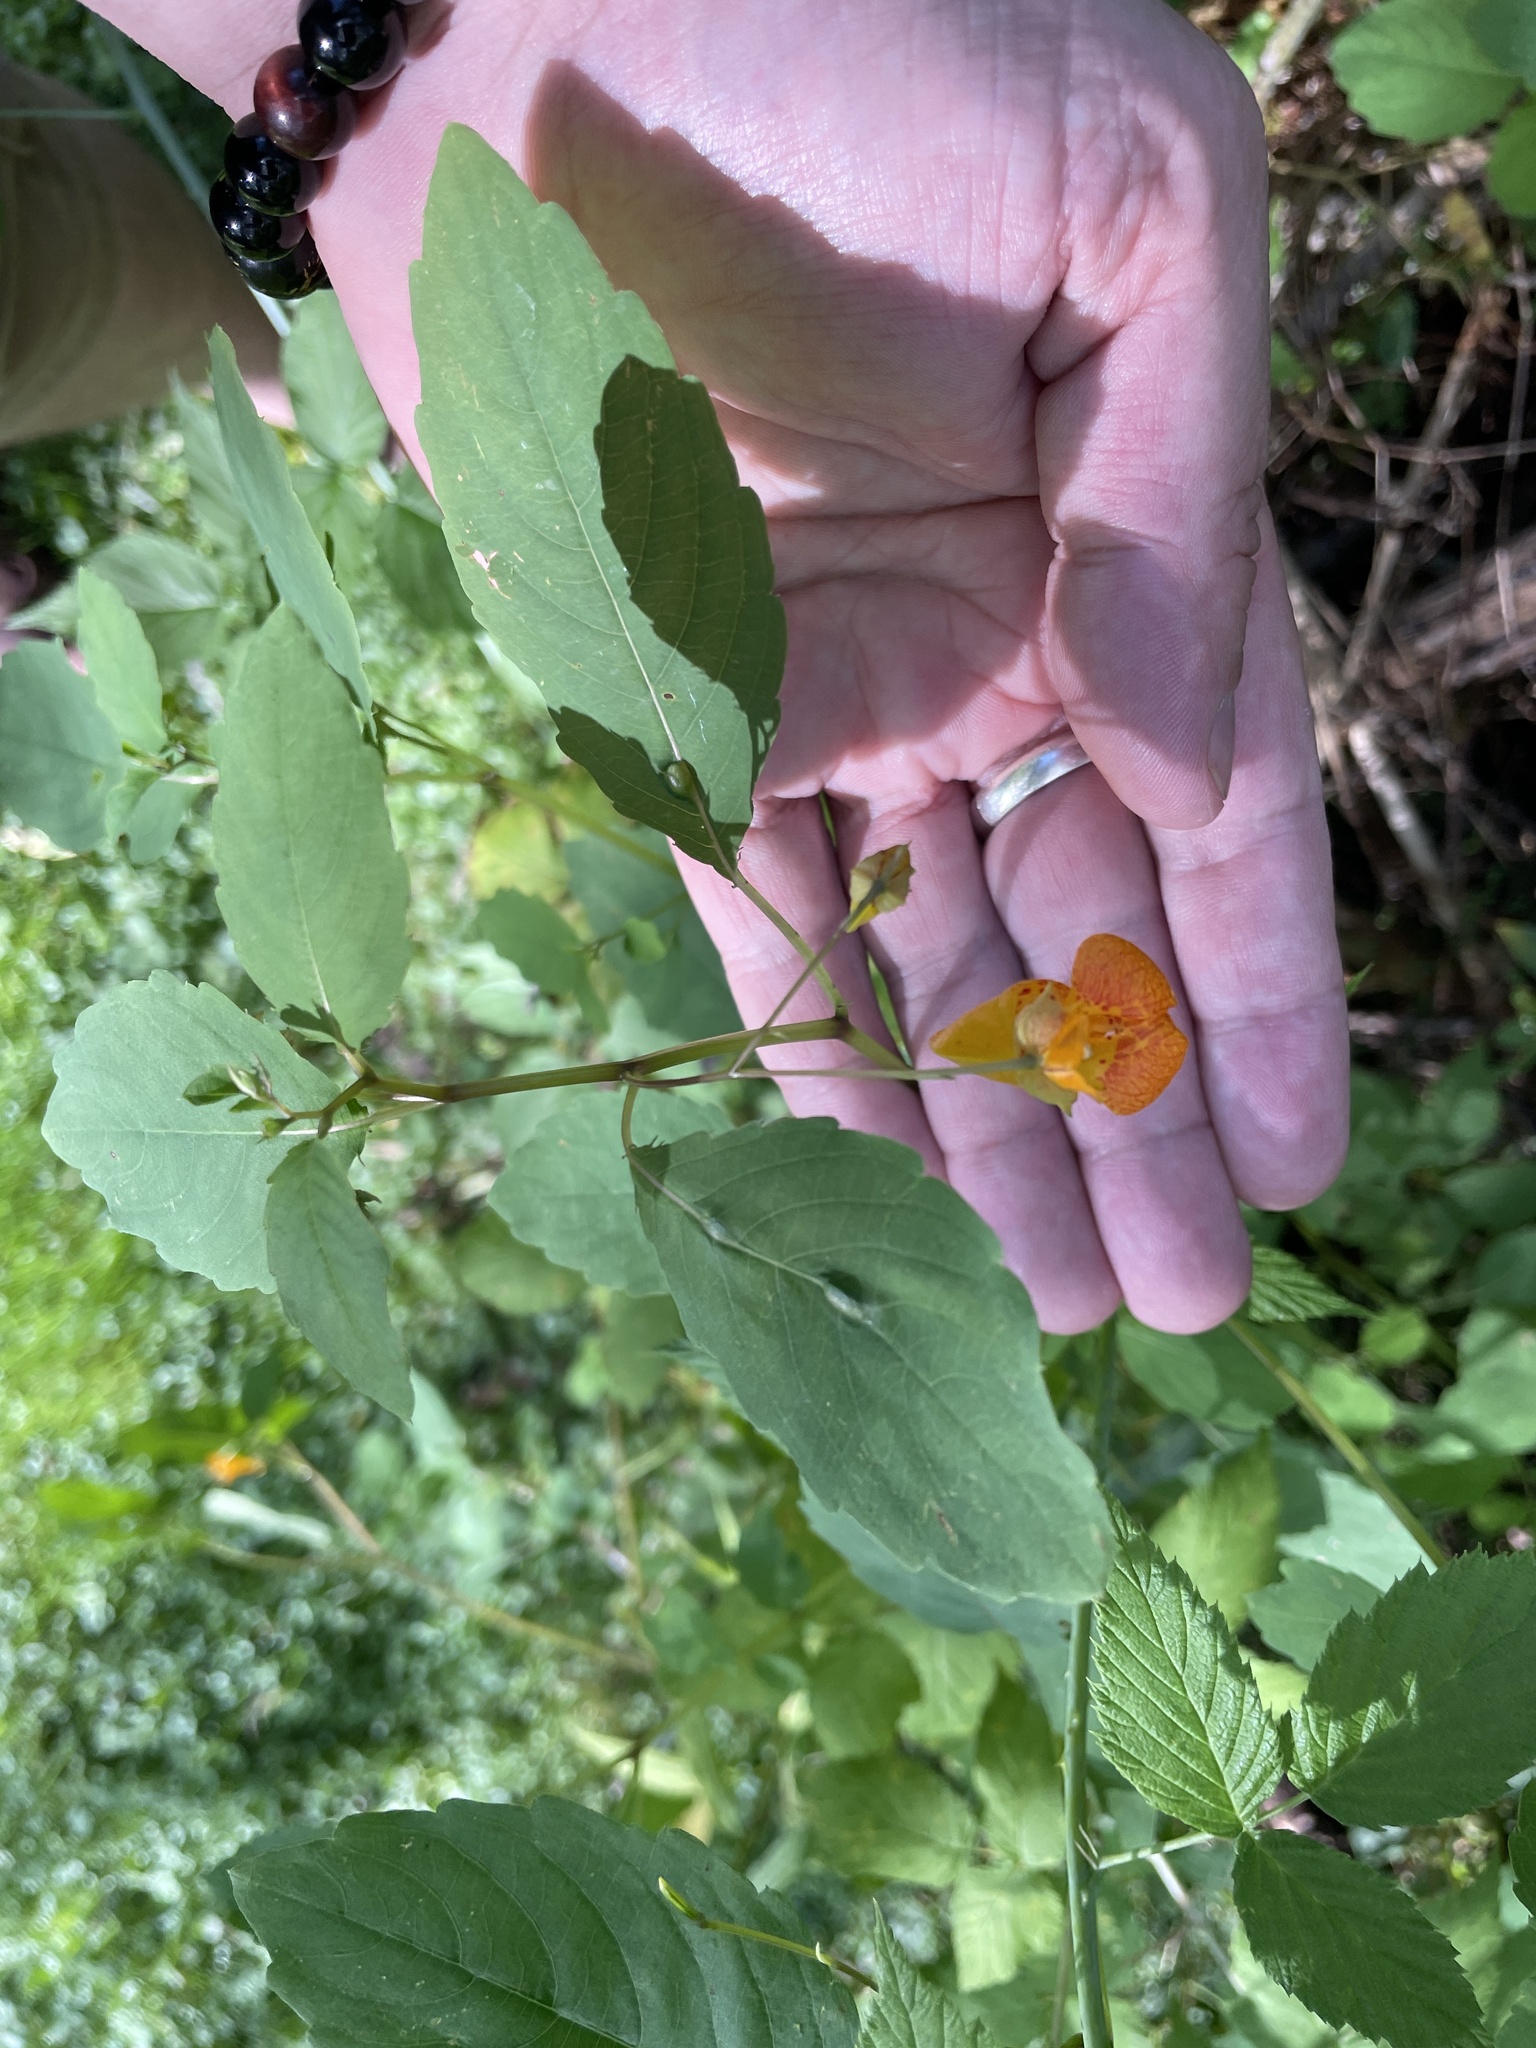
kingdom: Plantae
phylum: Tracheophyta
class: Magnoliopsida
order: Ericales
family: Balsaminaceae
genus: Impatiens
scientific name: Impatiens capensis
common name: Orange balsam
